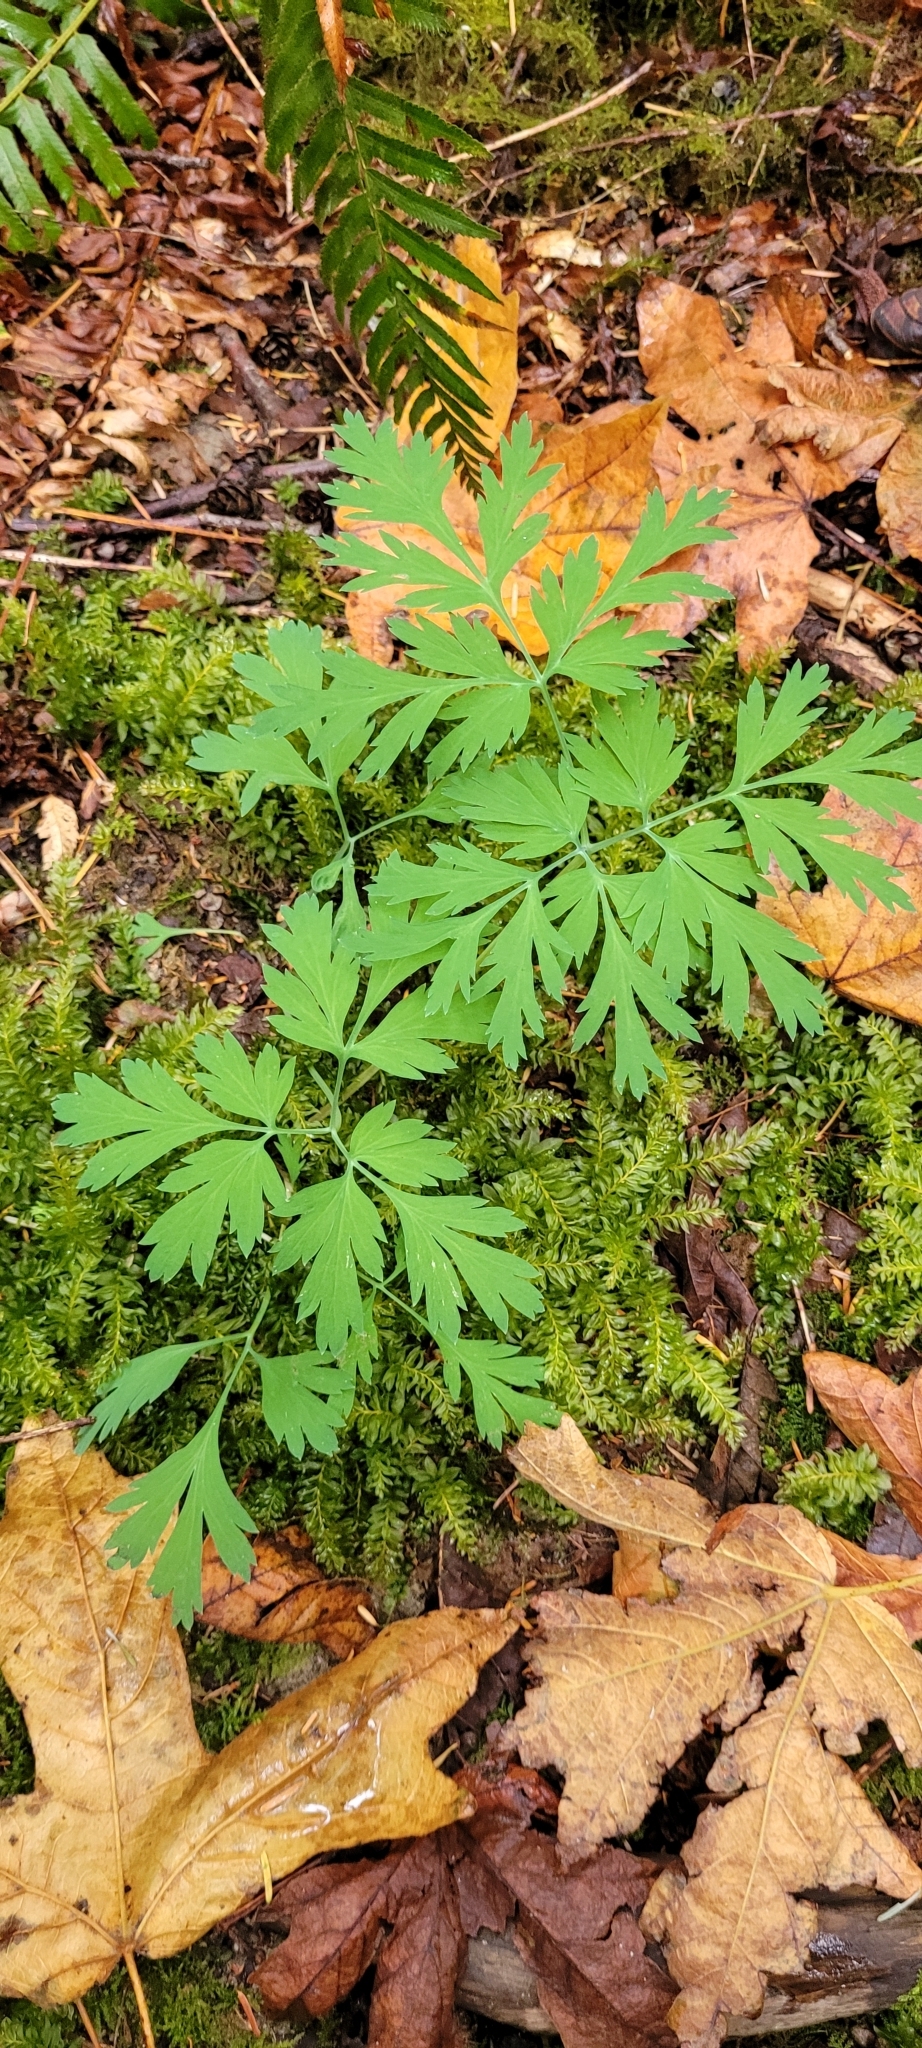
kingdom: Plantae
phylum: Tracheophyta
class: Magnoliopsida
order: Ranunculales
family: Papaveraceae
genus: Dicentra
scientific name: Dicentra formosa
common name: Bleeding-heart
